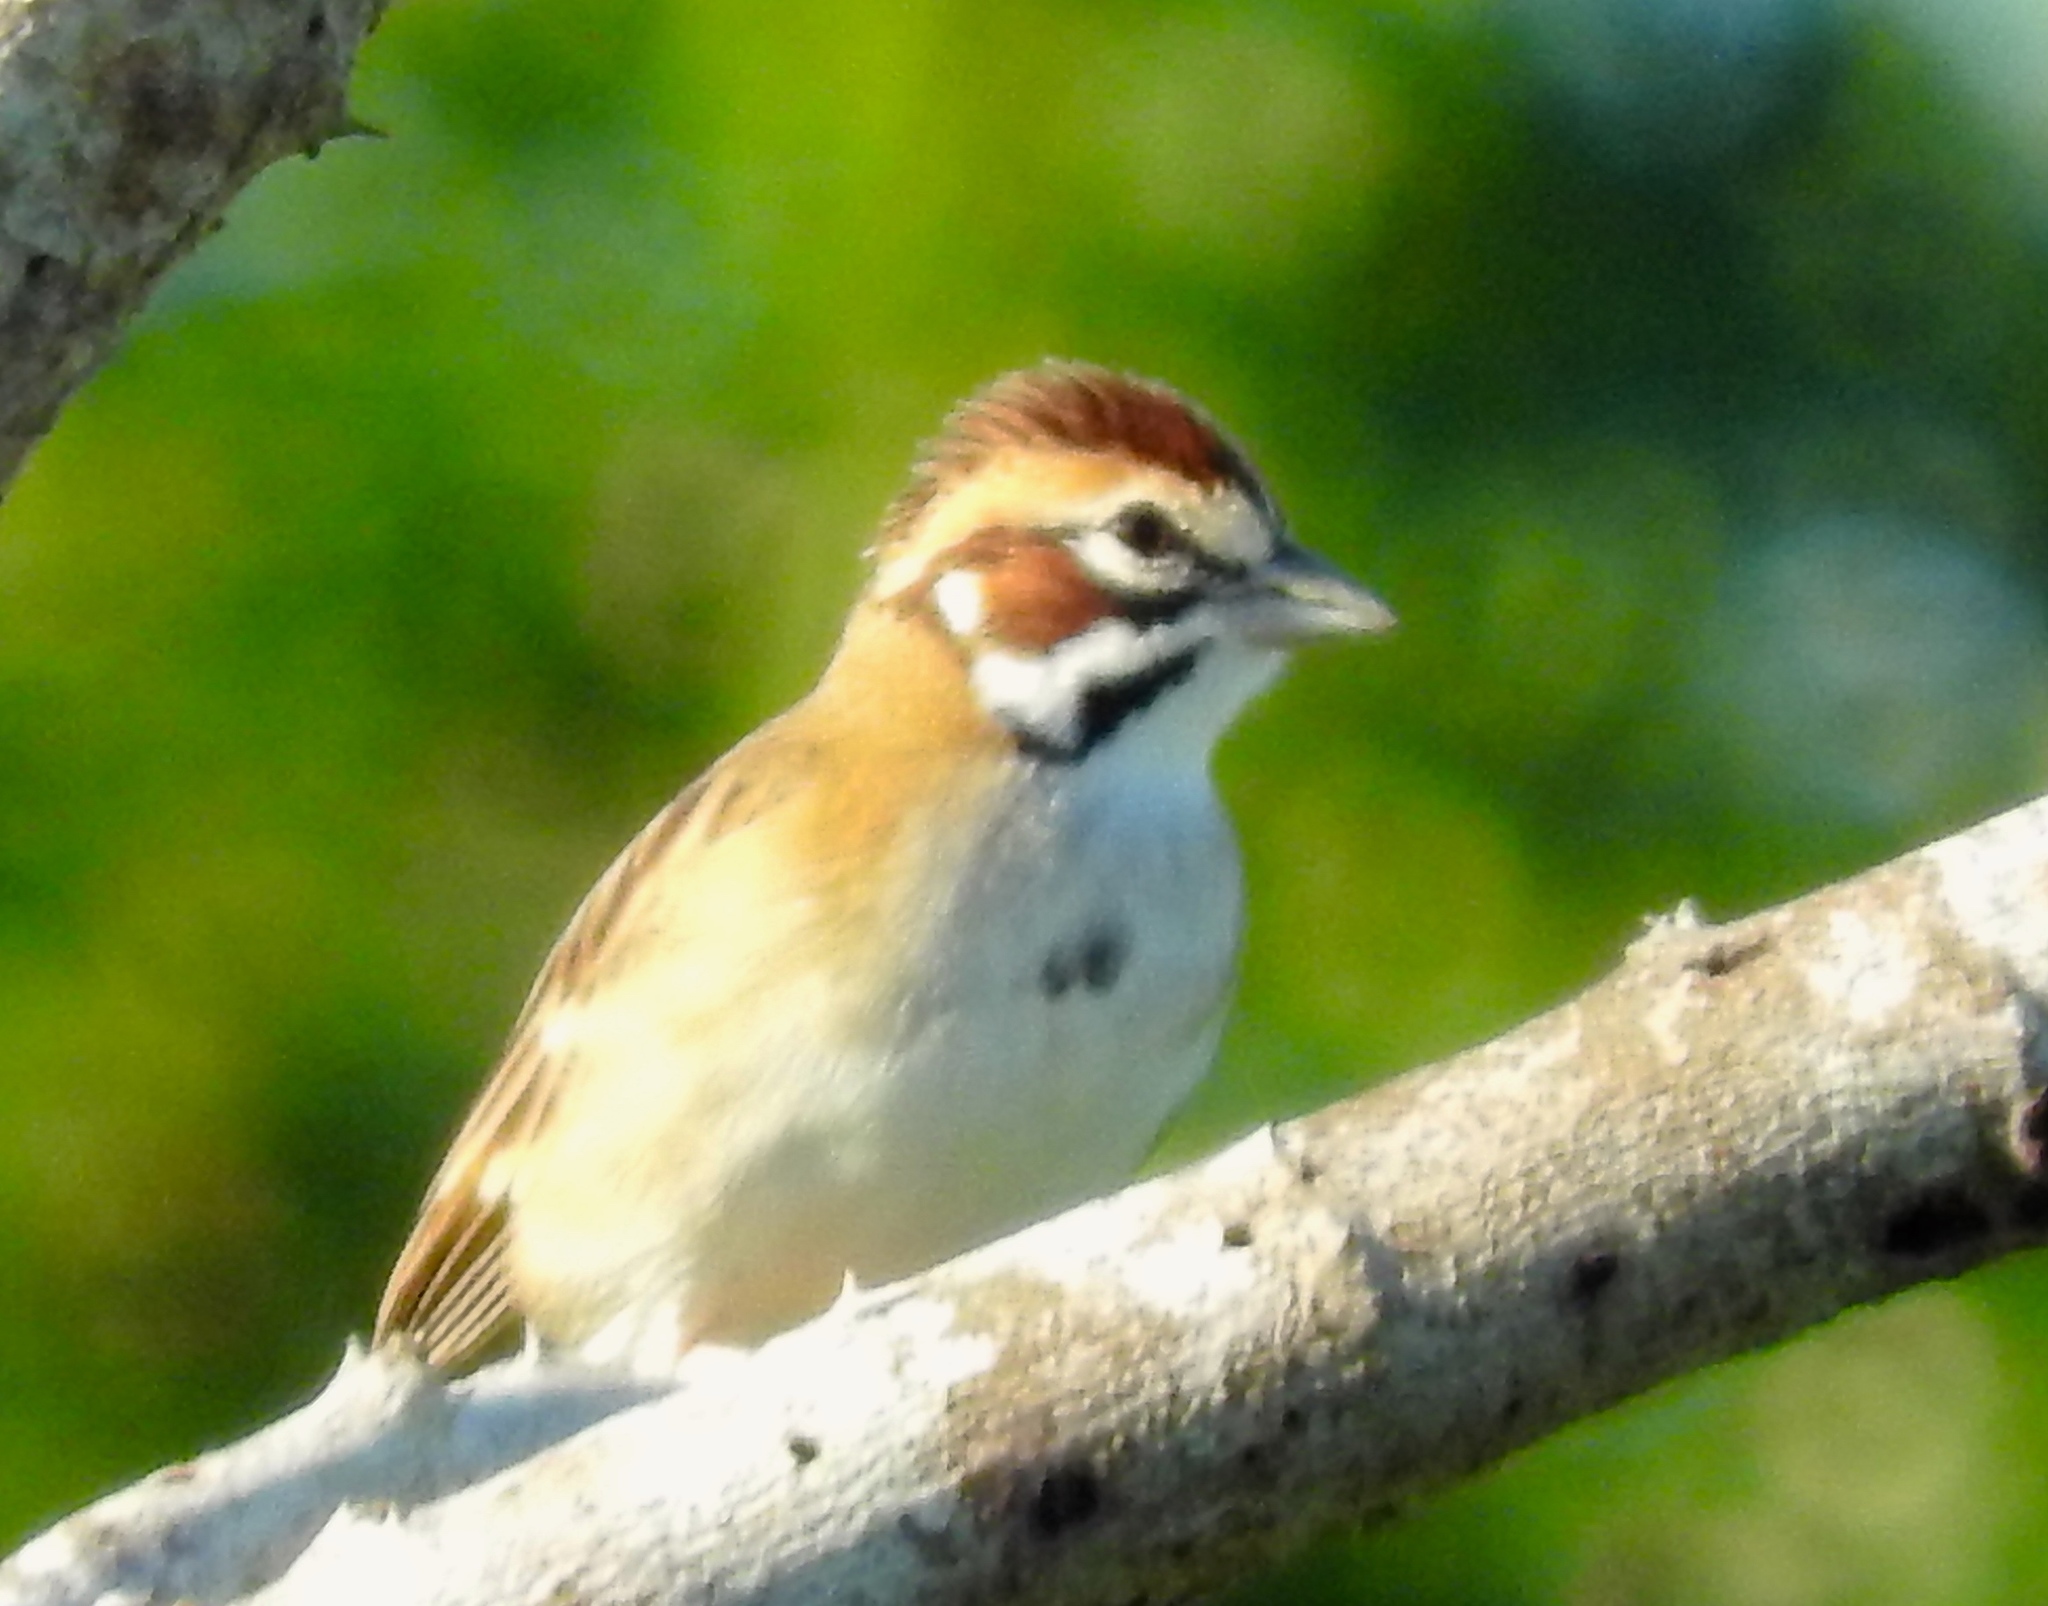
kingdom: Animalia
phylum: Chordata
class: Aves
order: Passeriformes
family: Passerellidae
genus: Chondestes
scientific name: Chondestes grammacus
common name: Lark sparrow
